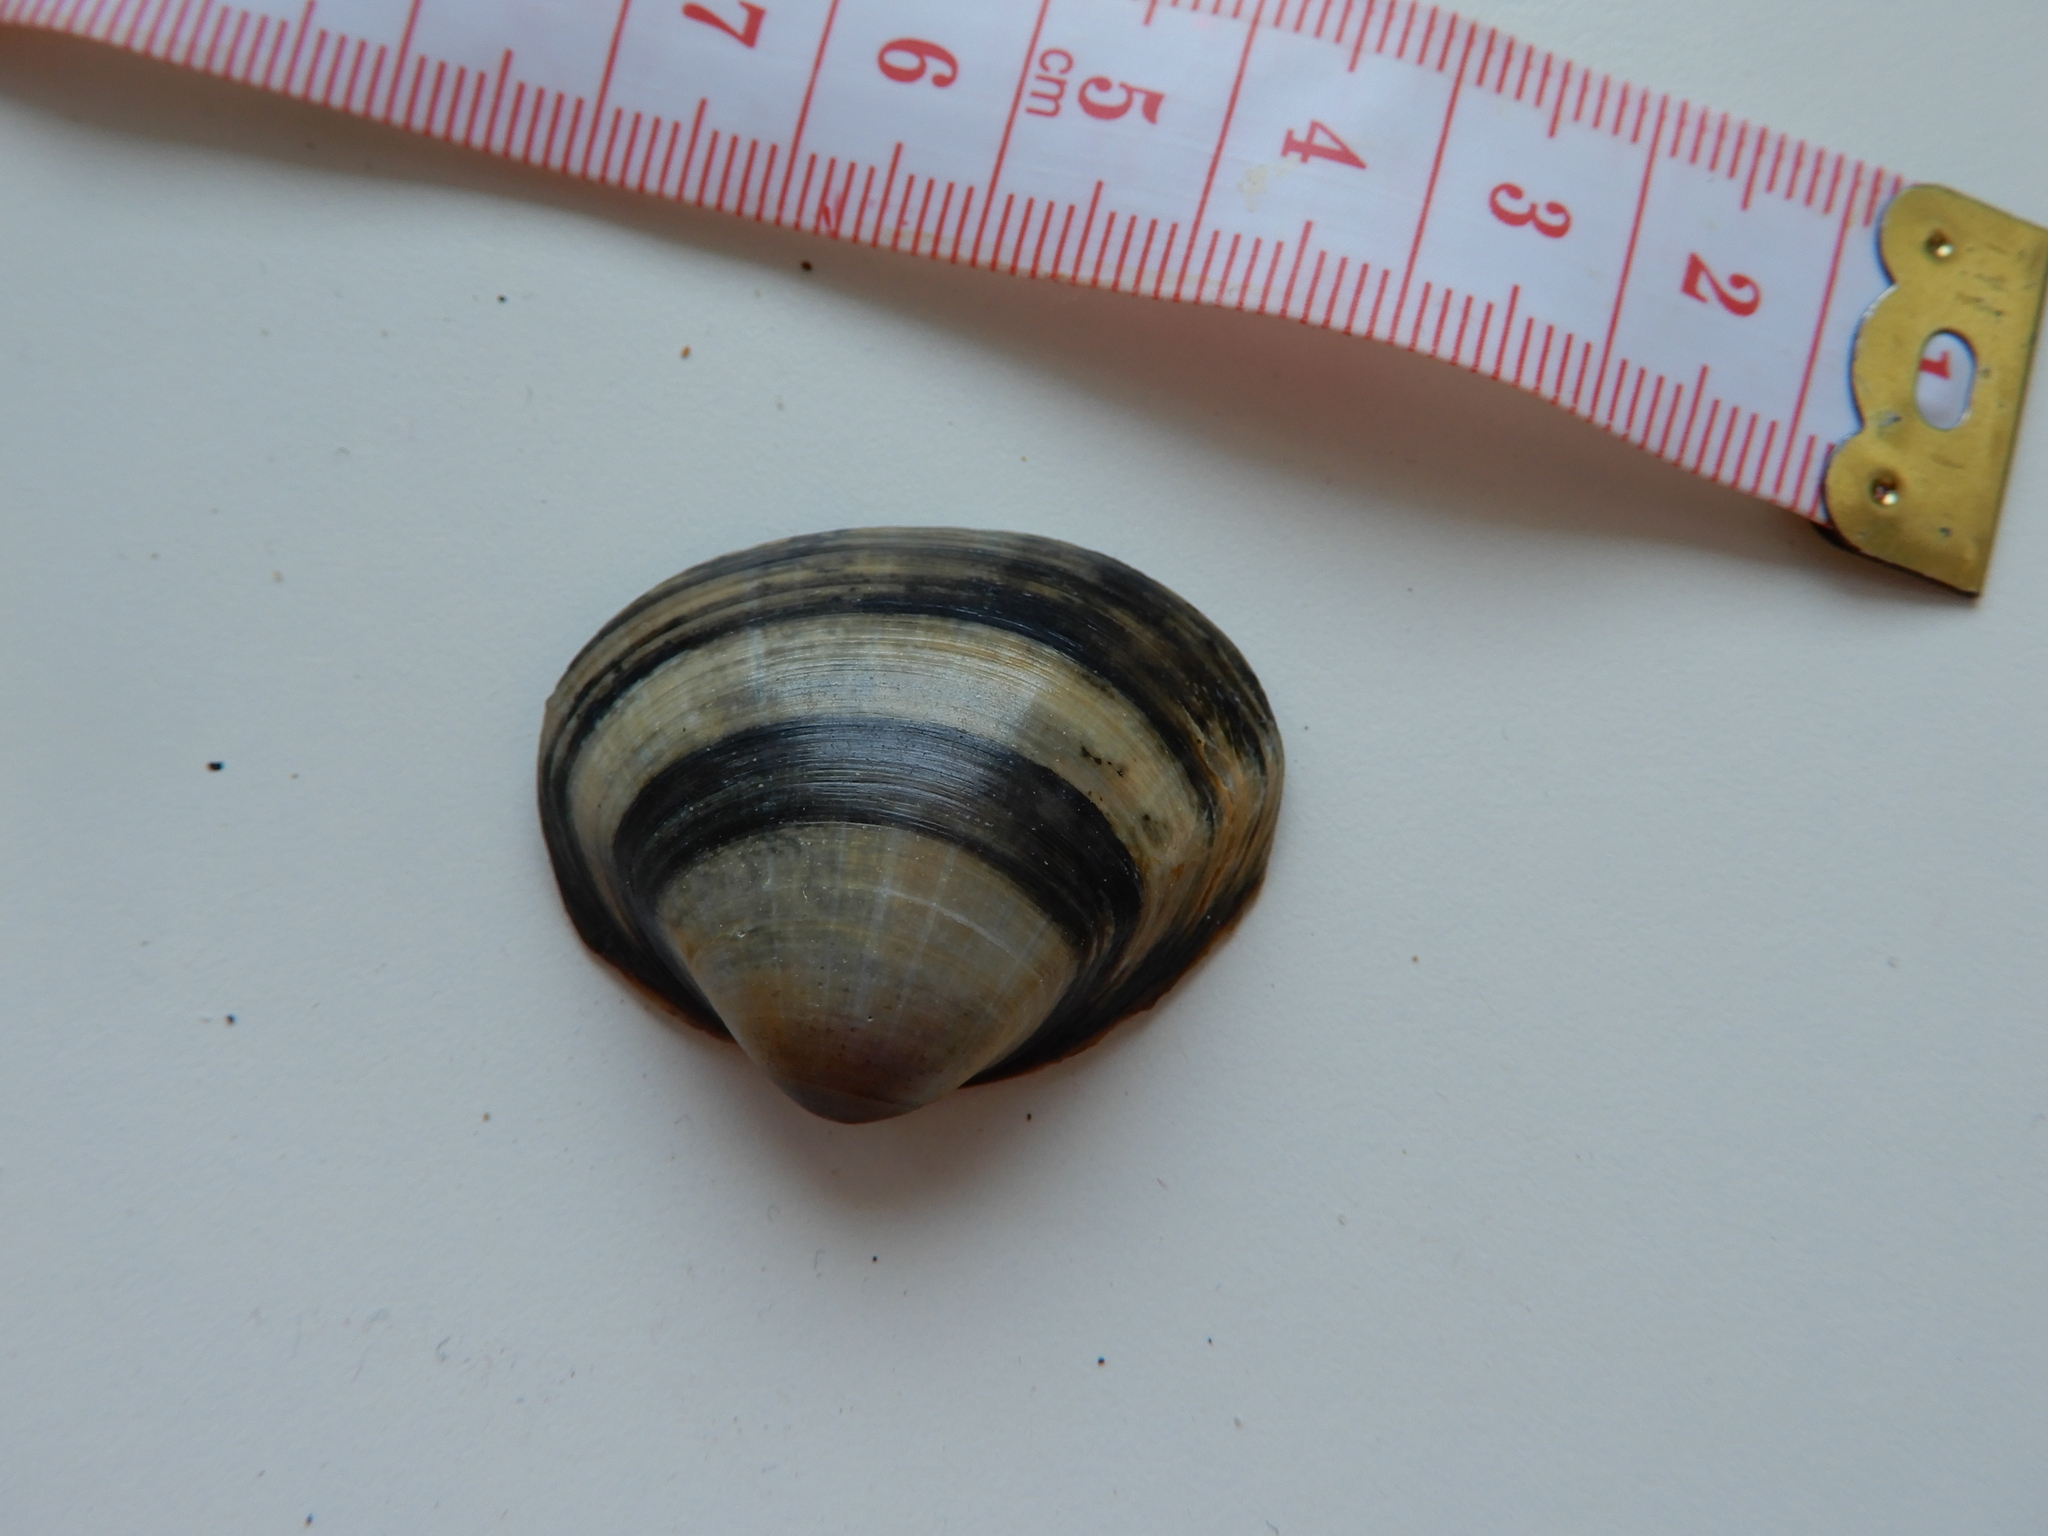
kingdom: Animalia
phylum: Mollusca
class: Bivalvia
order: Venerida
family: Mactridae
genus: Mactra
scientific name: Mactra stultorum
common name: Rayed trough shell
